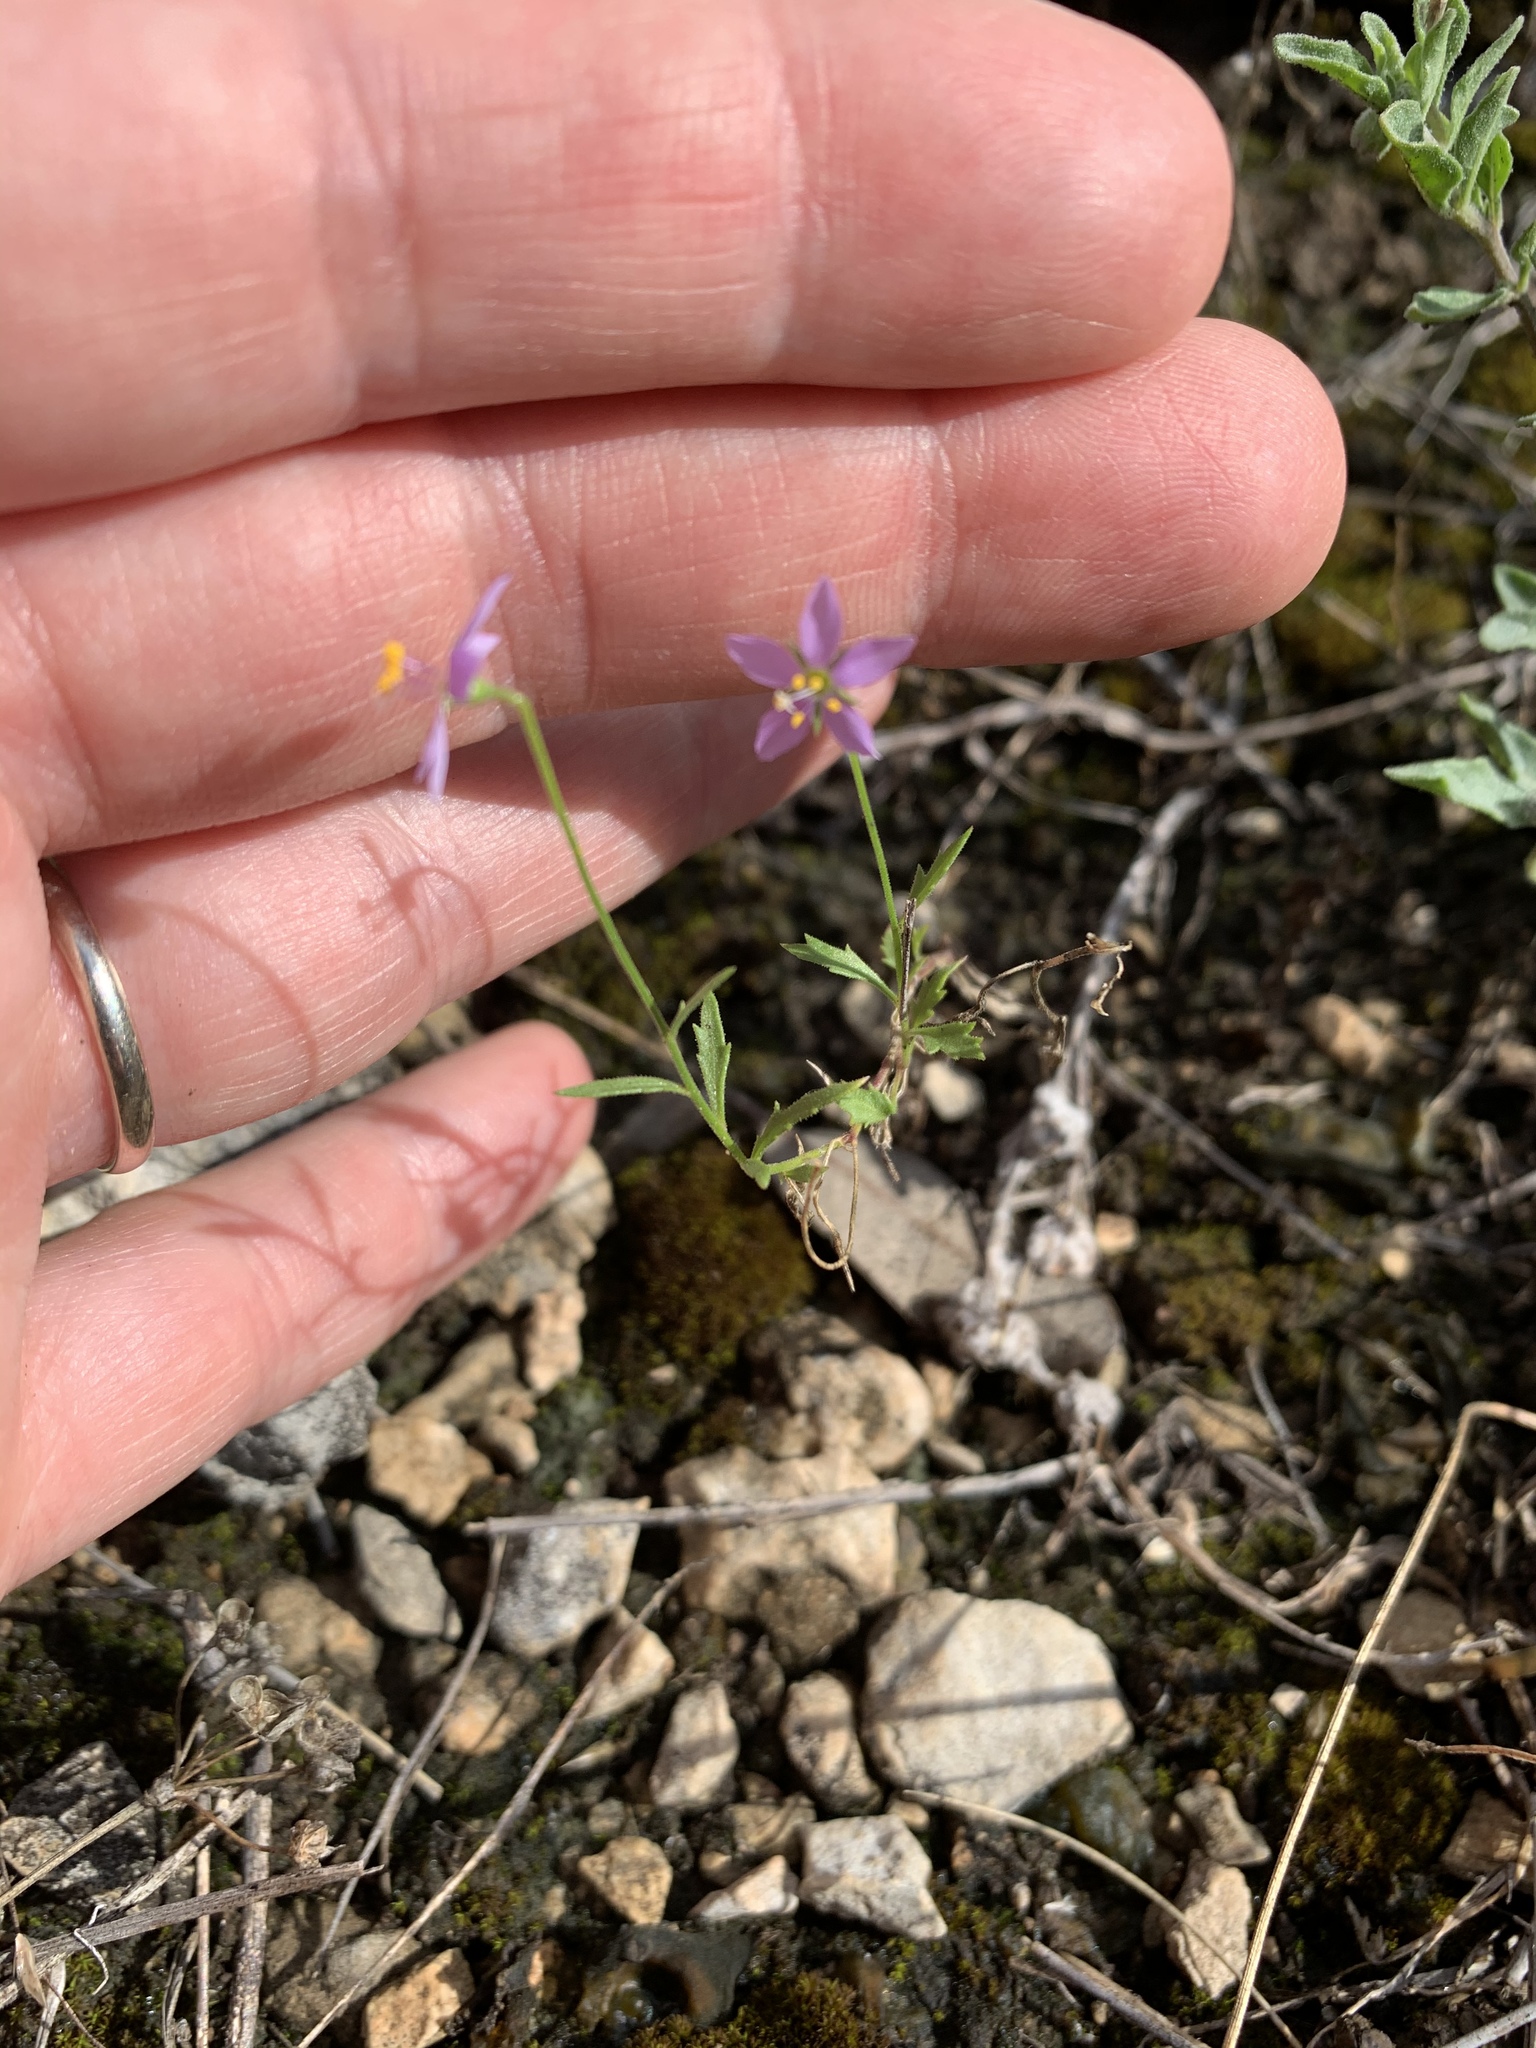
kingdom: Plantae
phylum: Tracheophyta
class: Magnoliopsida
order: Ericales
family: Polemoniaceae
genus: Giliastrum
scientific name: Giliastrum incisum
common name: Splitleaf gilia
